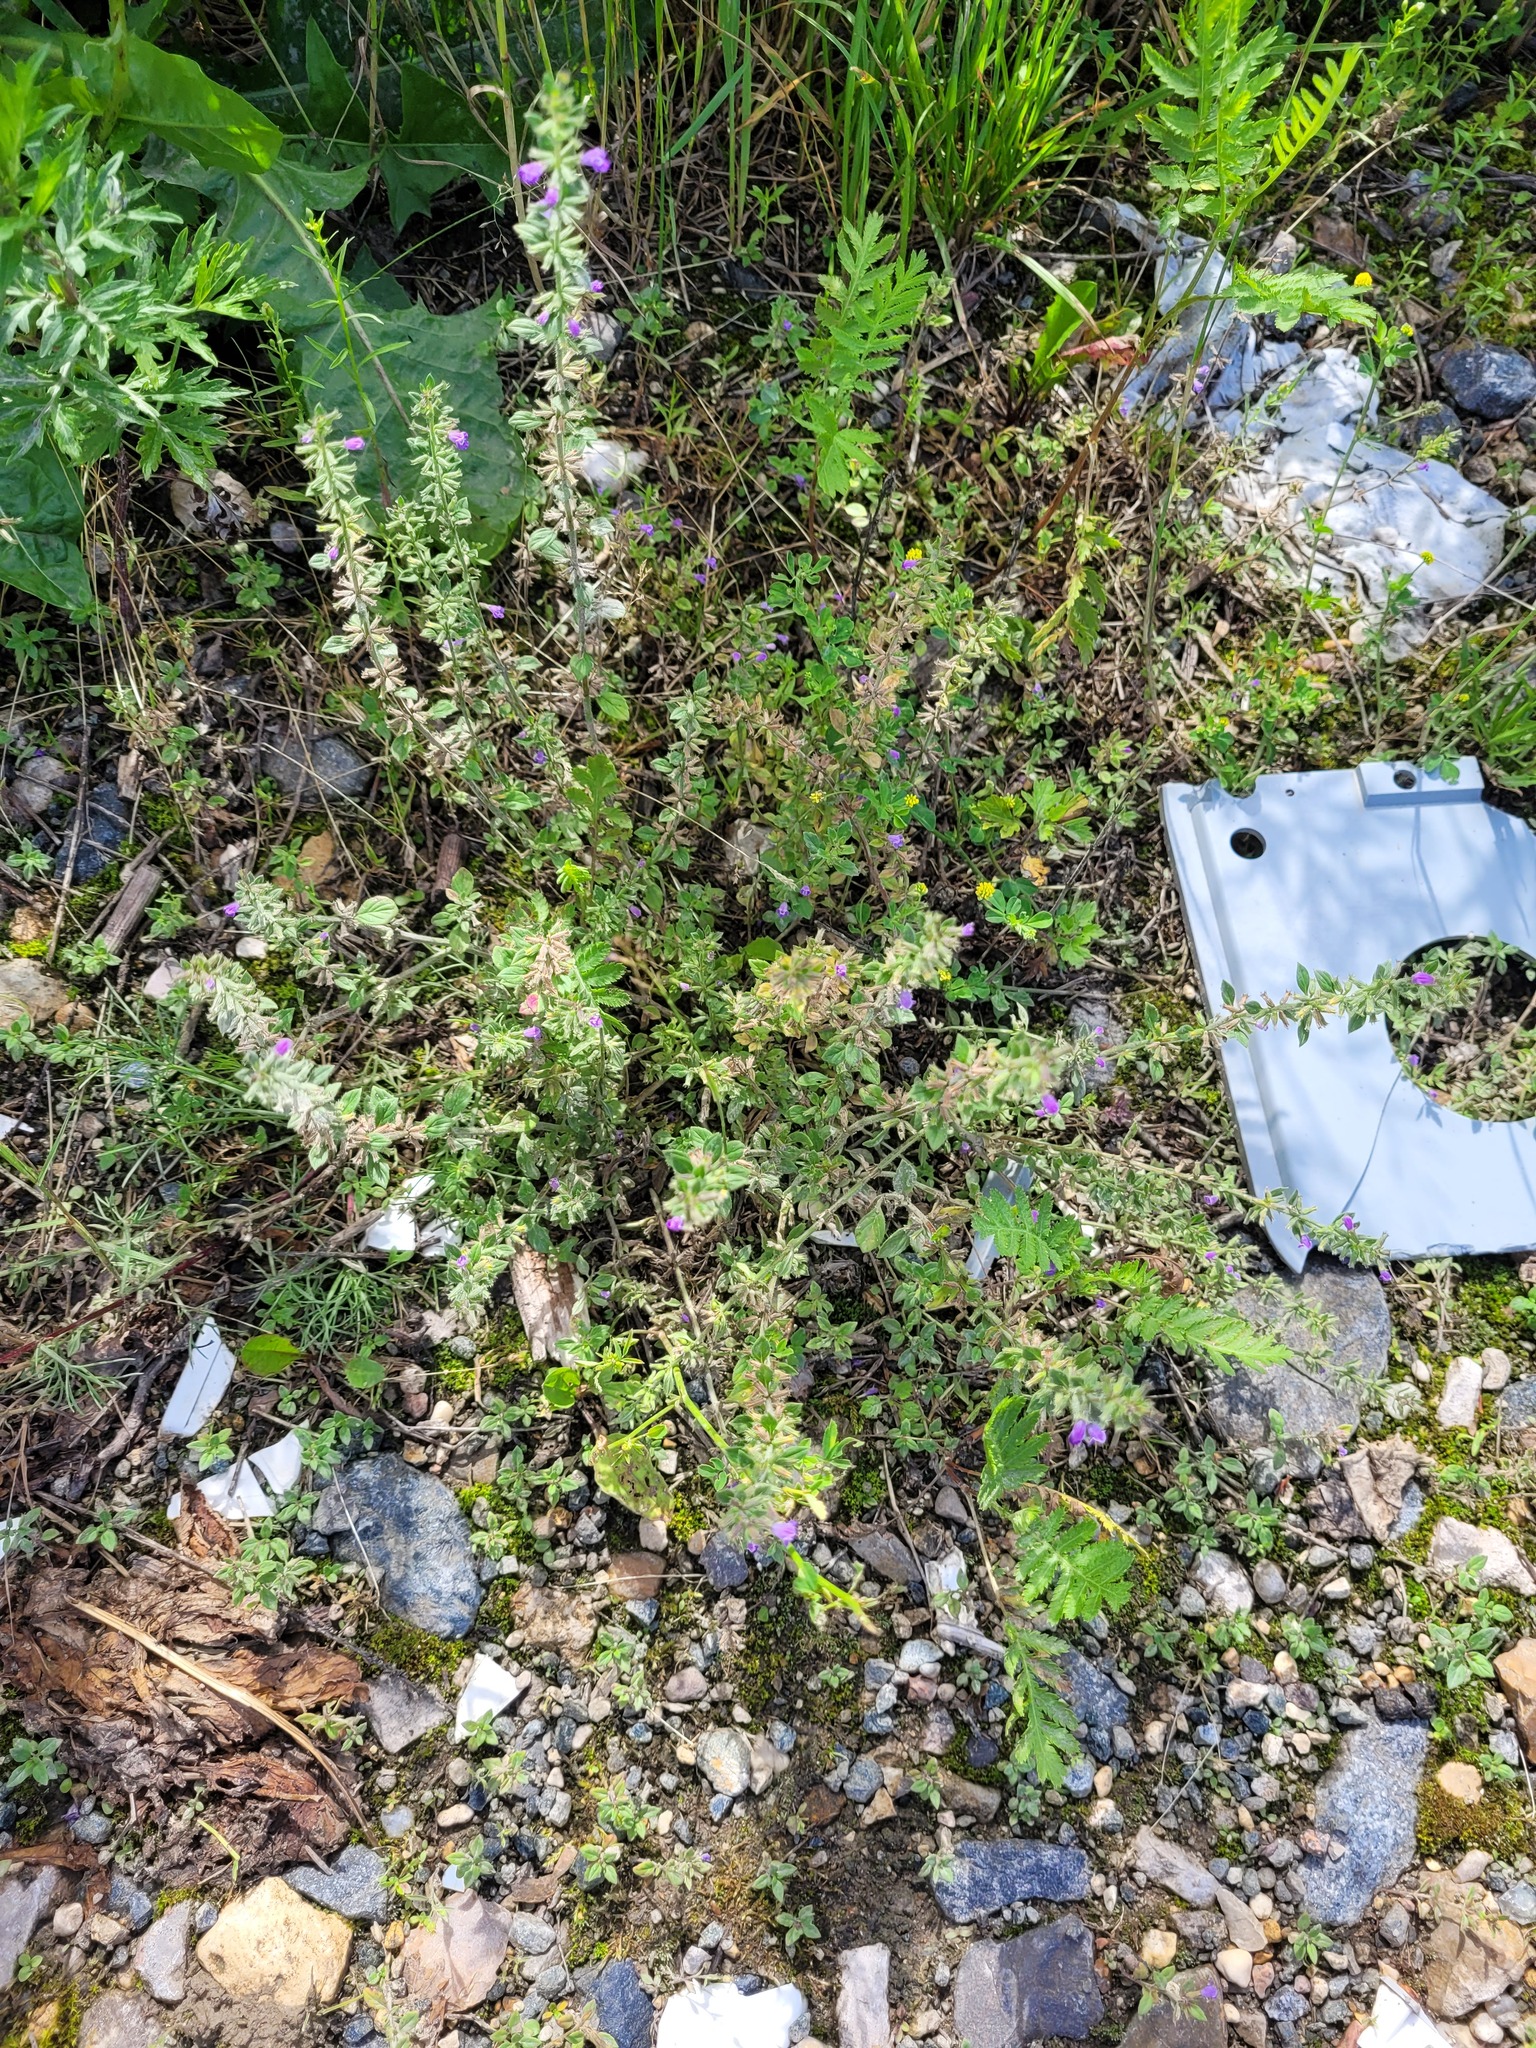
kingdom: Plantae
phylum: Tracheophyta
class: Magnoliopsida
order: Lamiales
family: Lamiaceae
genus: Clinopodium
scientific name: Clinopodium acinos
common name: Basil thyme
